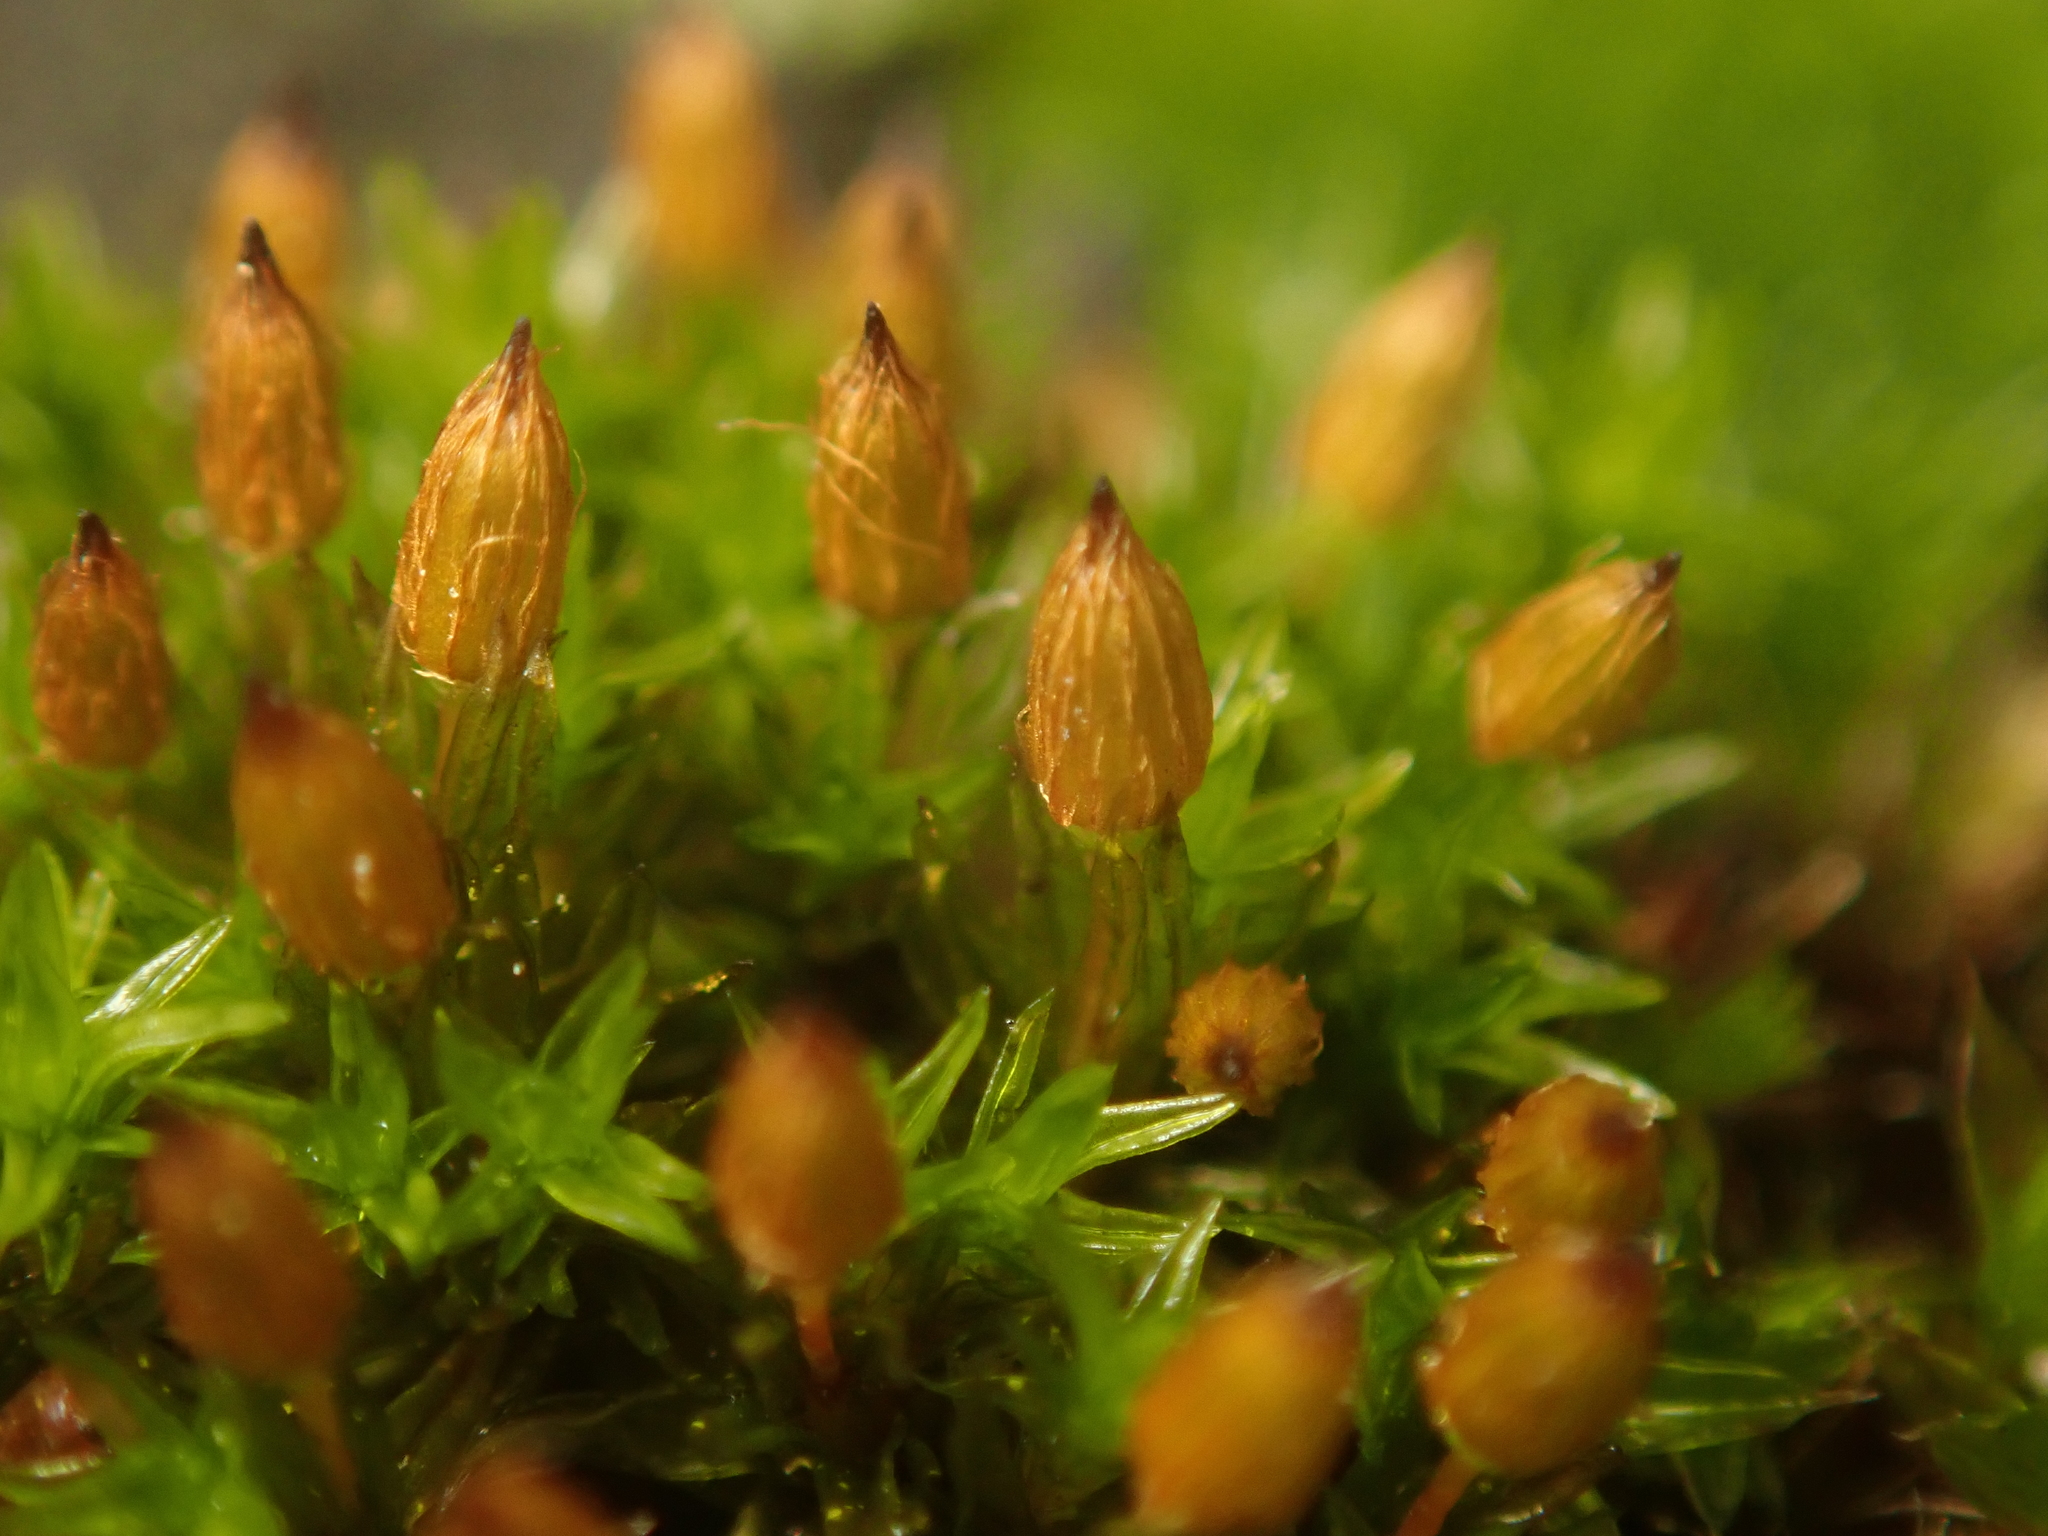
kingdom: Plantae
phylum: Bryophyta
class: Bryopsida
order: Orthotrichales
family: Orthotrichaceae
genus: Orthotrichum
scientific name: Orthotrichum anomalum
